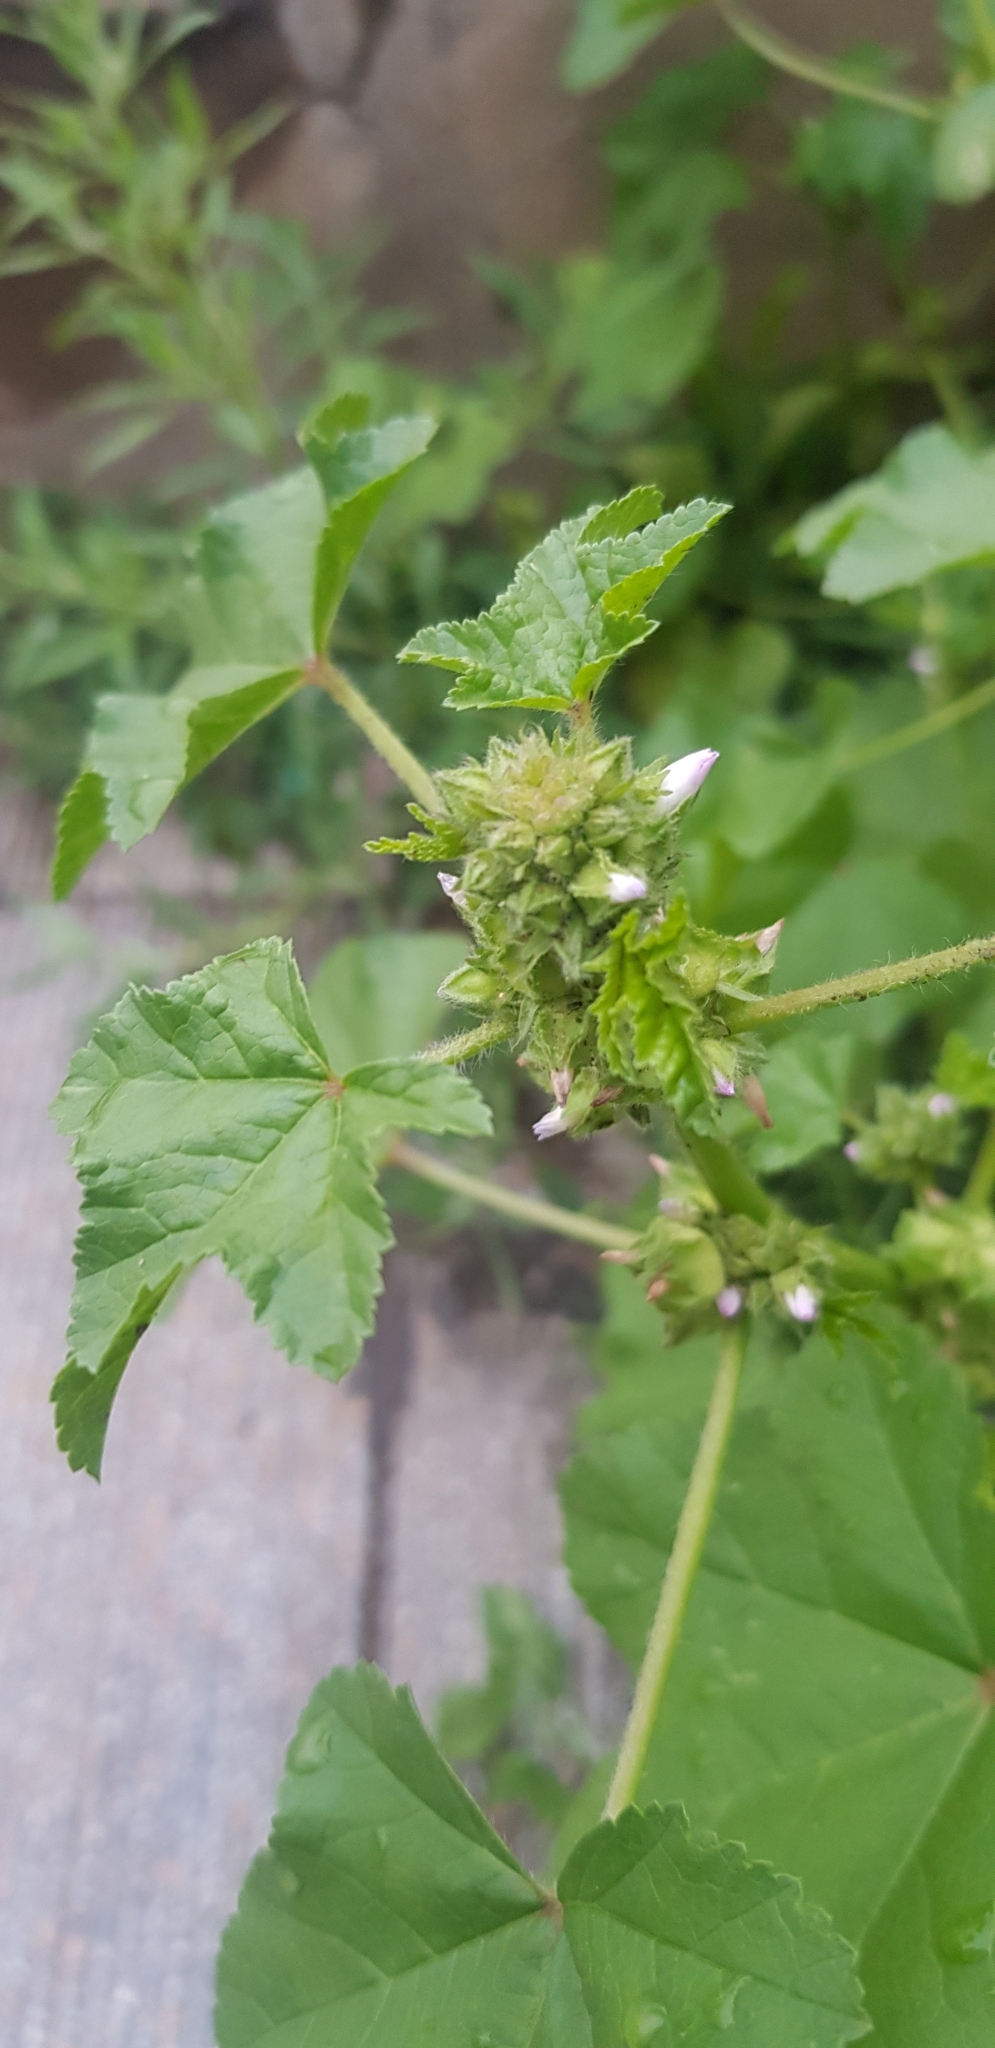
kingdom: Plantae
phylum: Tracheophyta
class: Magnoliopsida
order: Malvales
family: Malvaceae
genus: Malva
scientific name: Malva verticillata
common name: Chinese mallow
